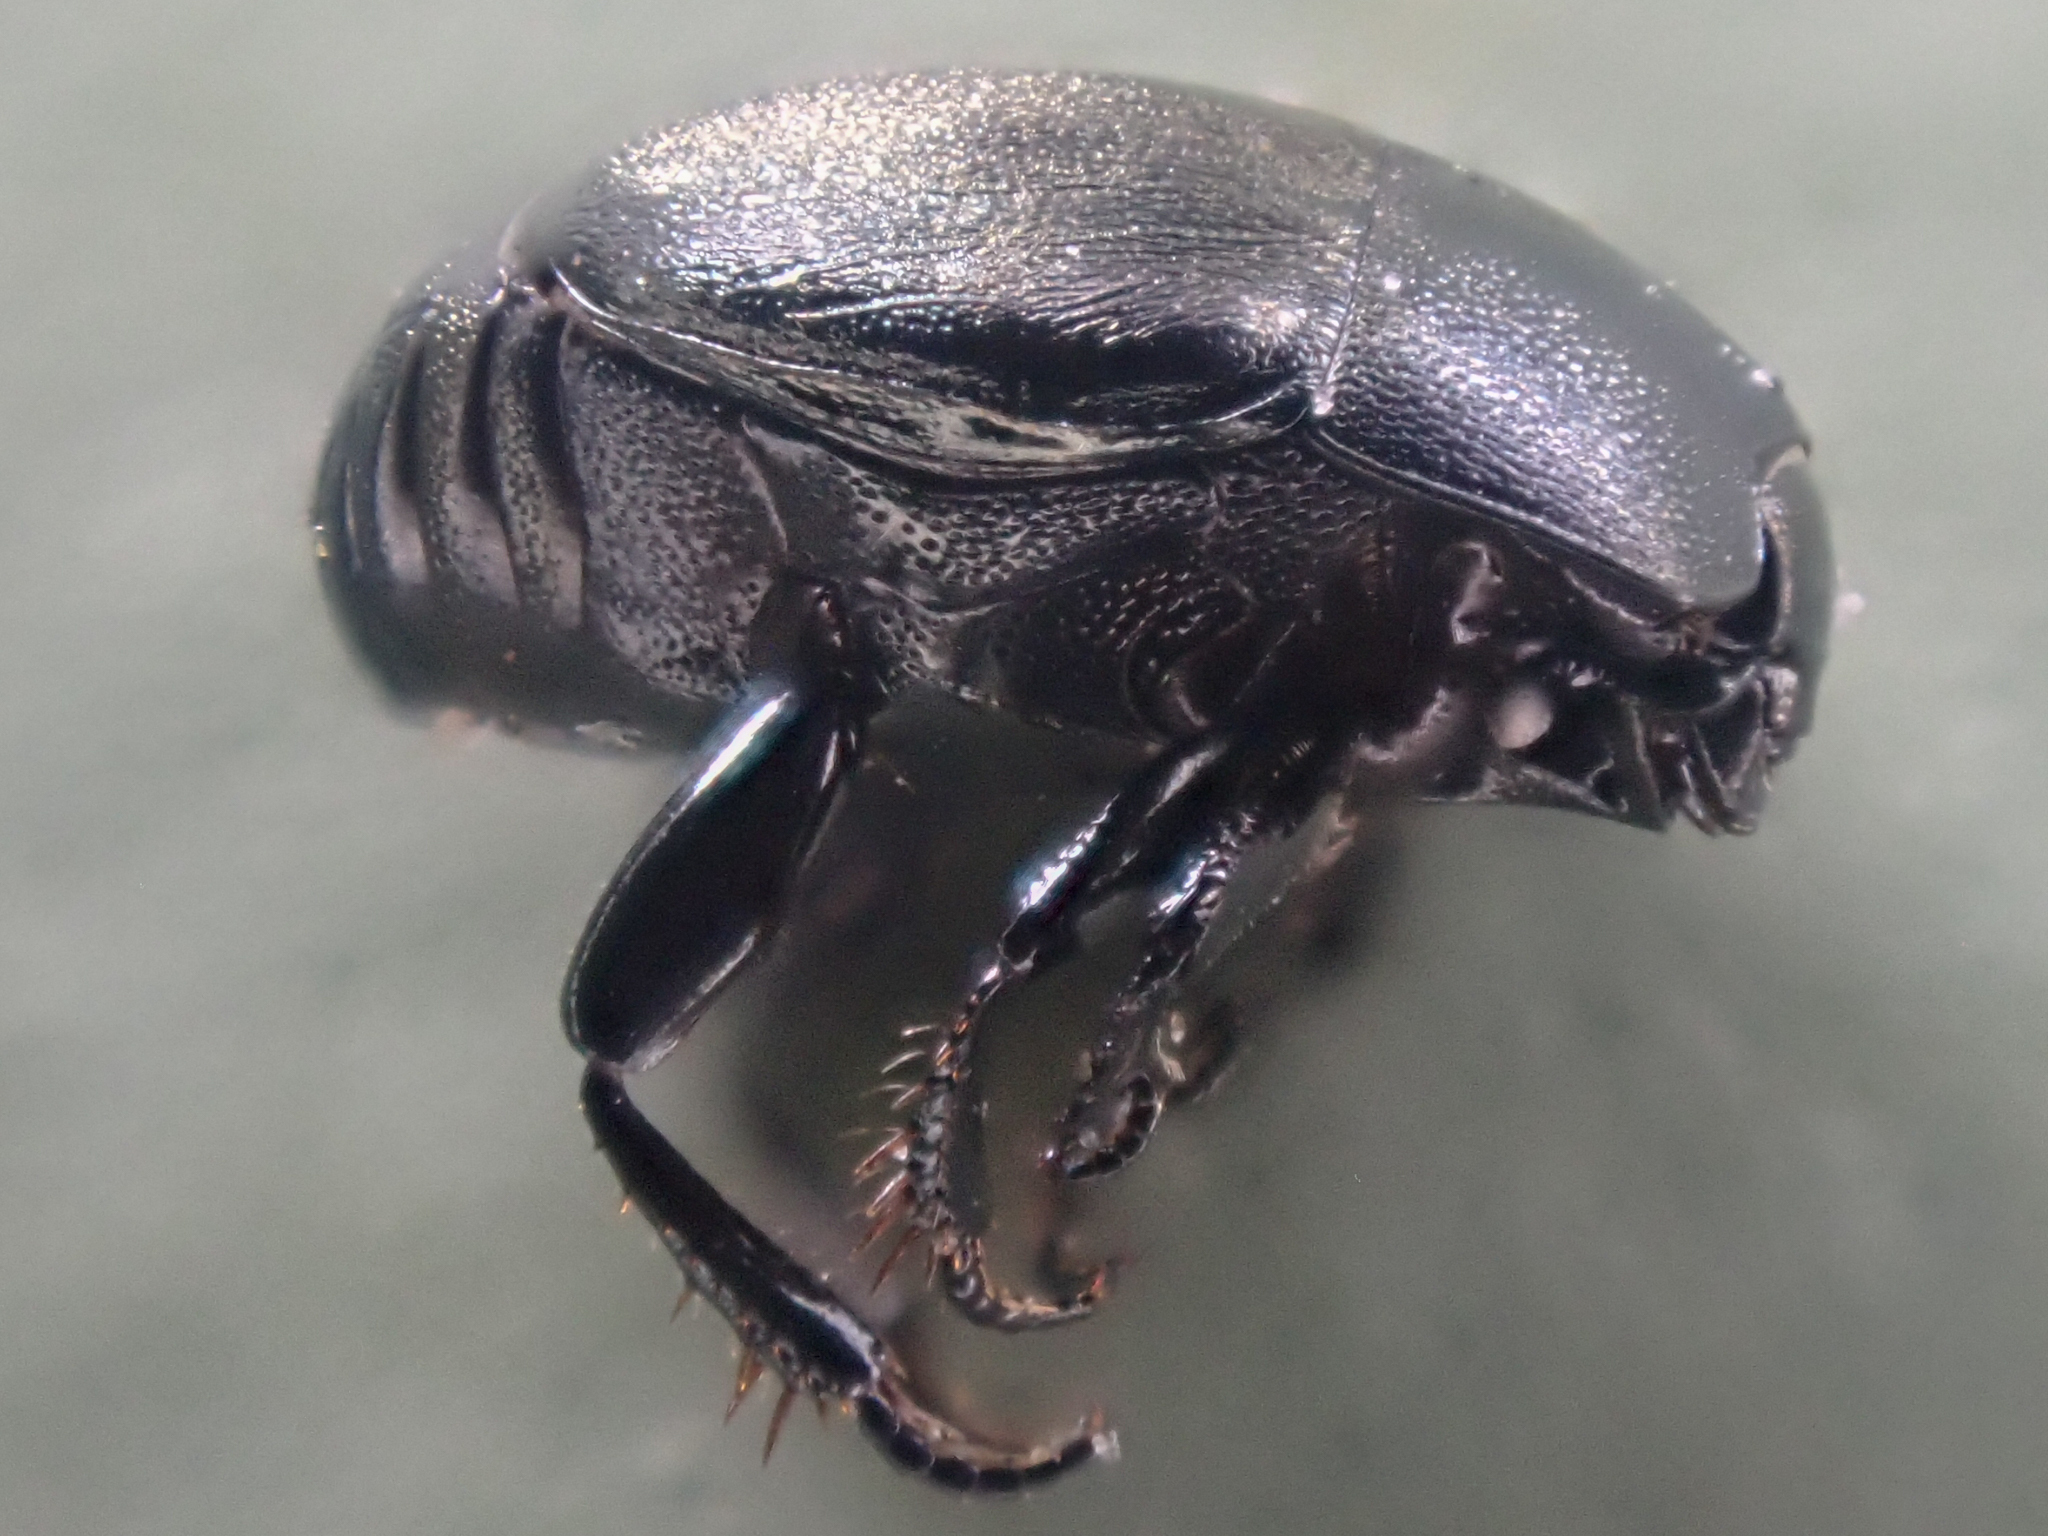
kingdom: Animalia
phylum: Arthropoda
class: Insecta
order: Coleoptera
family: Histeridae
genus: Hypocaccus
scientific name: Hypocaccus bigemmeus
